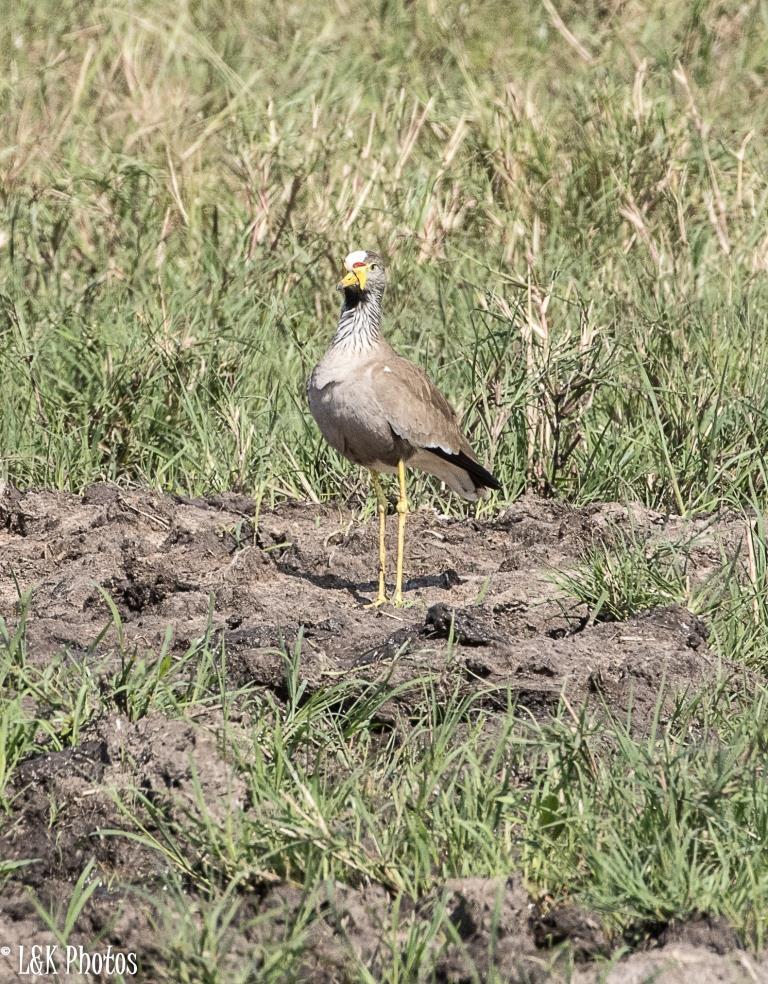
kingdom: Animalia
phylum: Chordata
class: Aves
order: Charadriiformes
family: Charadriidae
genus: Vanellus
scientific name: Vanellus senegallus
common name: African wattled lapwing
